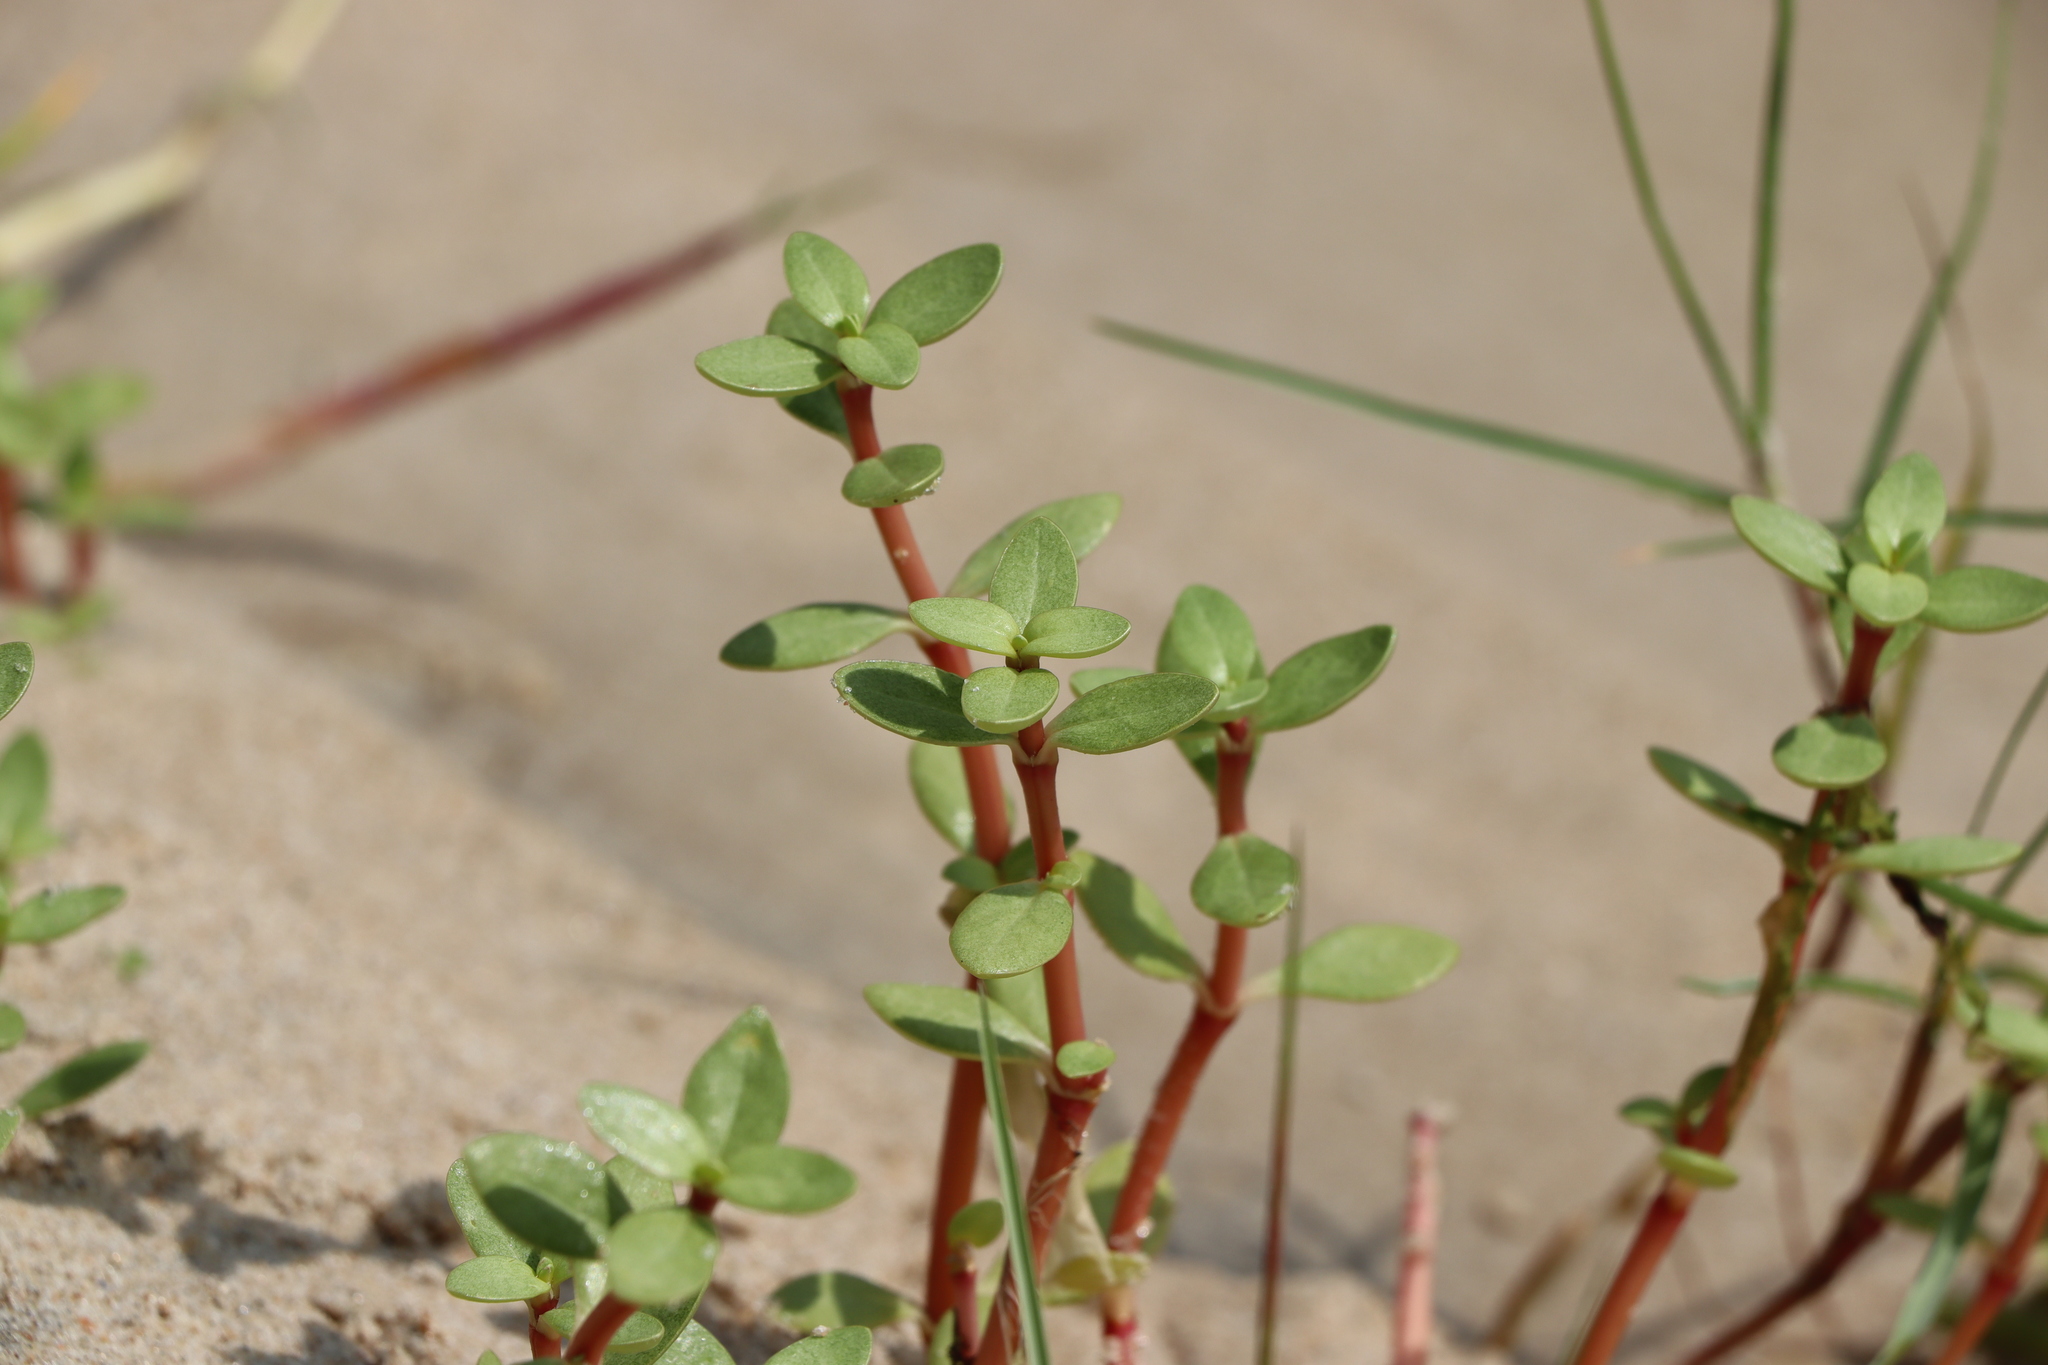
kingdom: Plantae
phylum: Tracheophyta
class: Magnoliopsida
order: Caryophyllales
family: Amaranthaceae
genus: Gomphrena
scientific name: Gomphrena portulacoides
